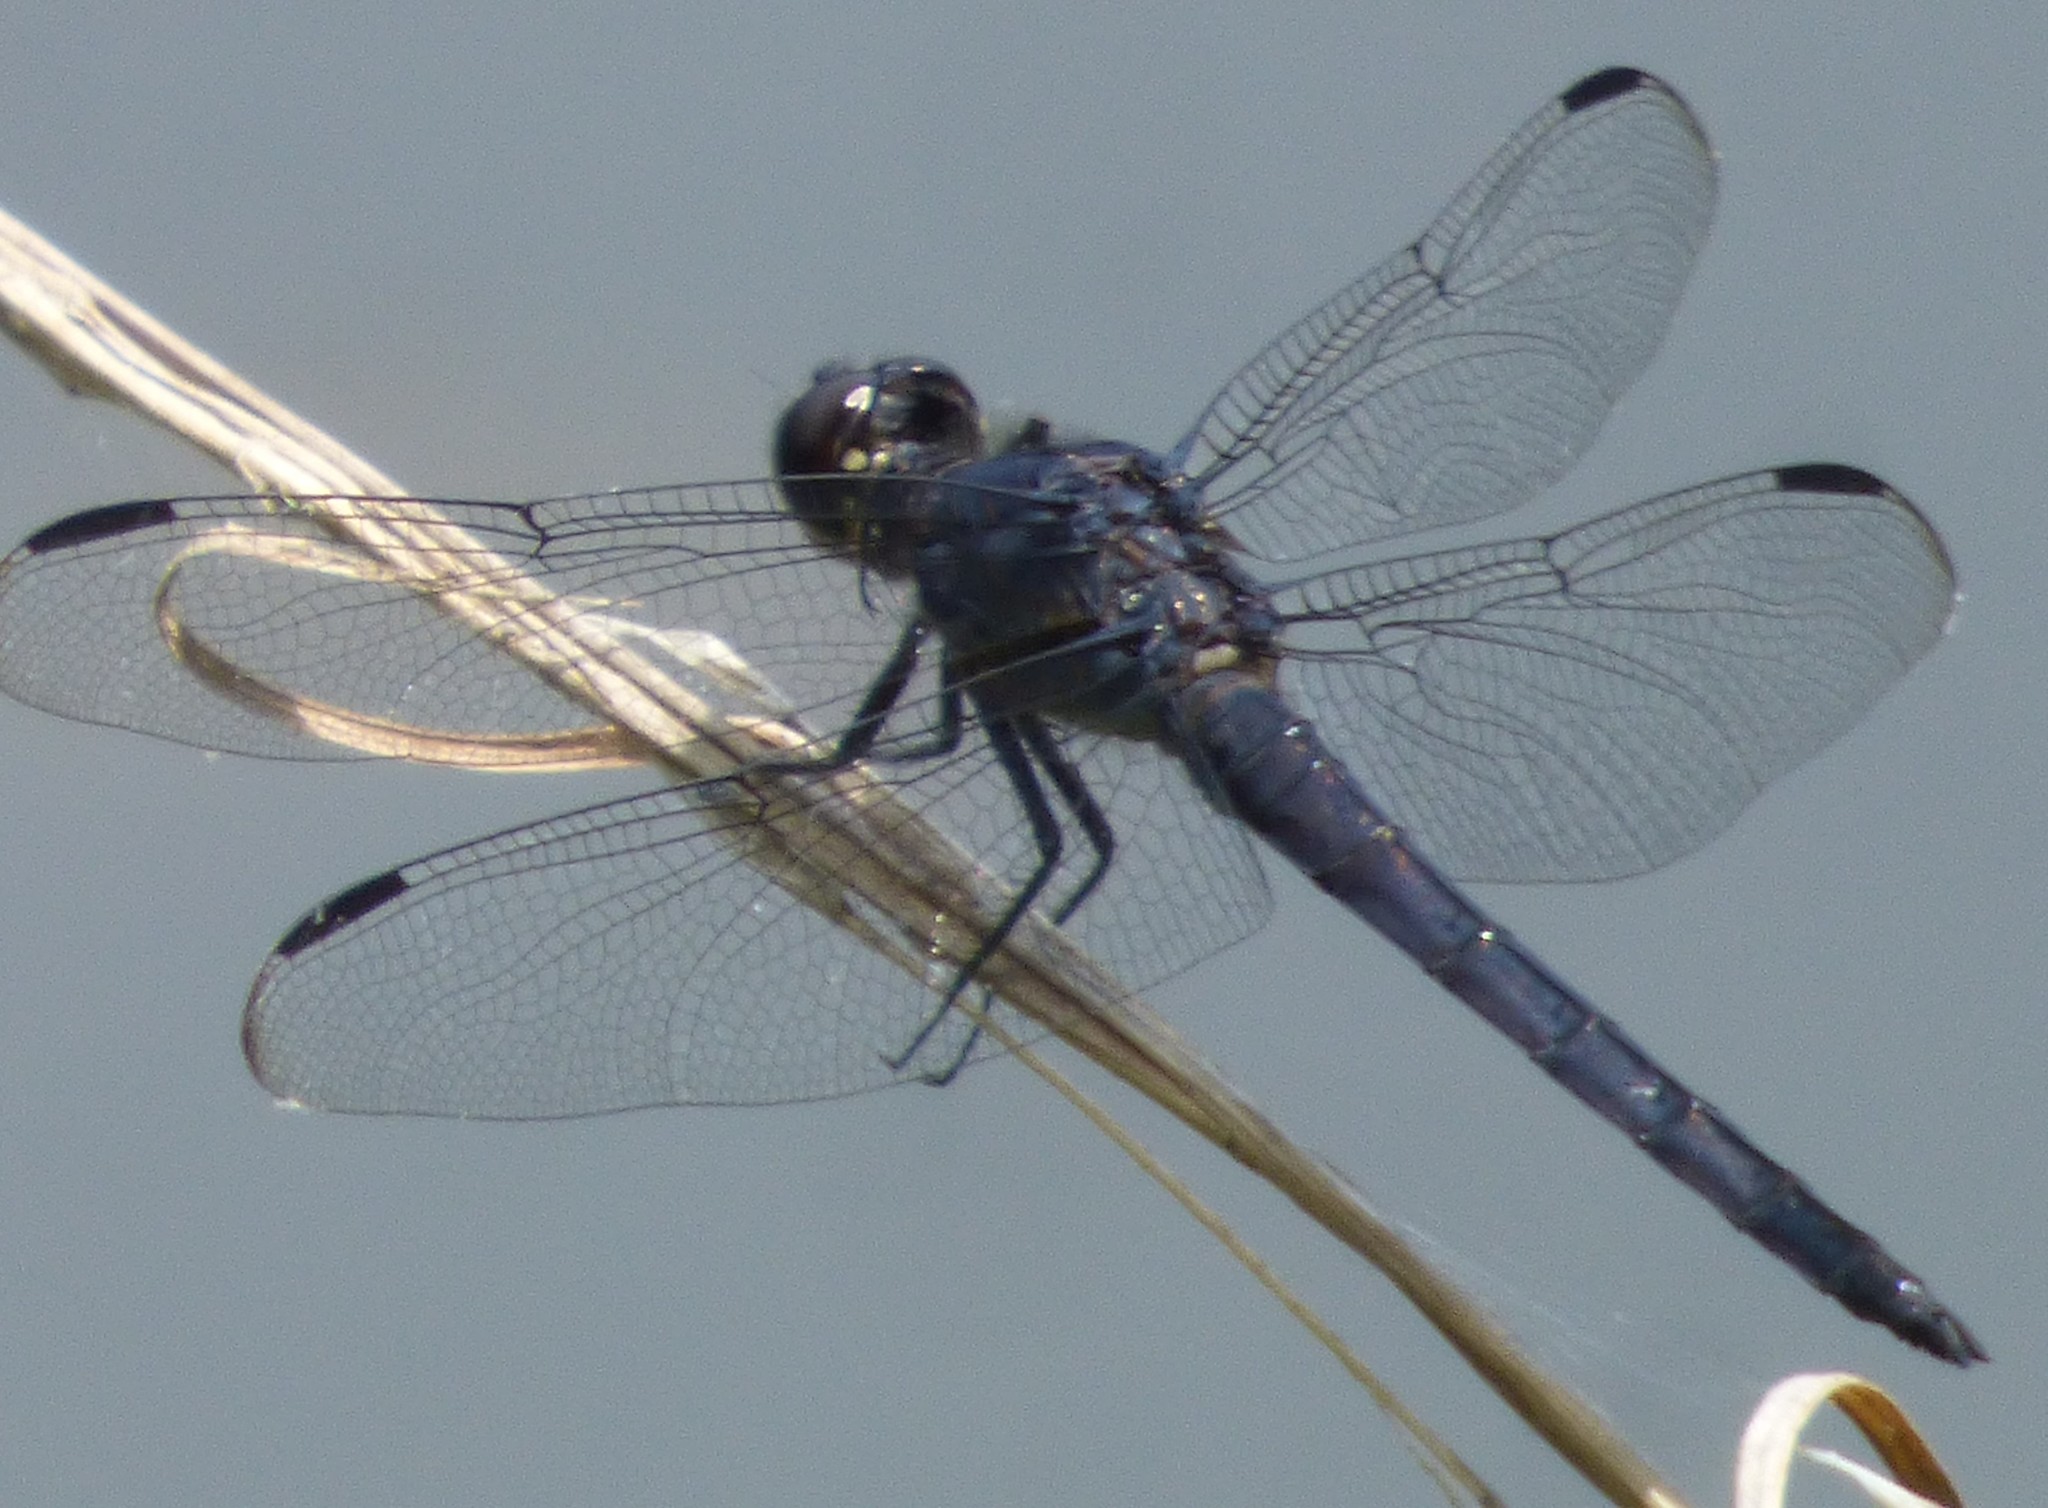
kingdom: Animalia
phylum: Arthropoda
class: Insecta
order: Odonata
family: Libellulidae
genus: Libellula
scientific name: Libellula incesta
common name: Slaty skimmer
